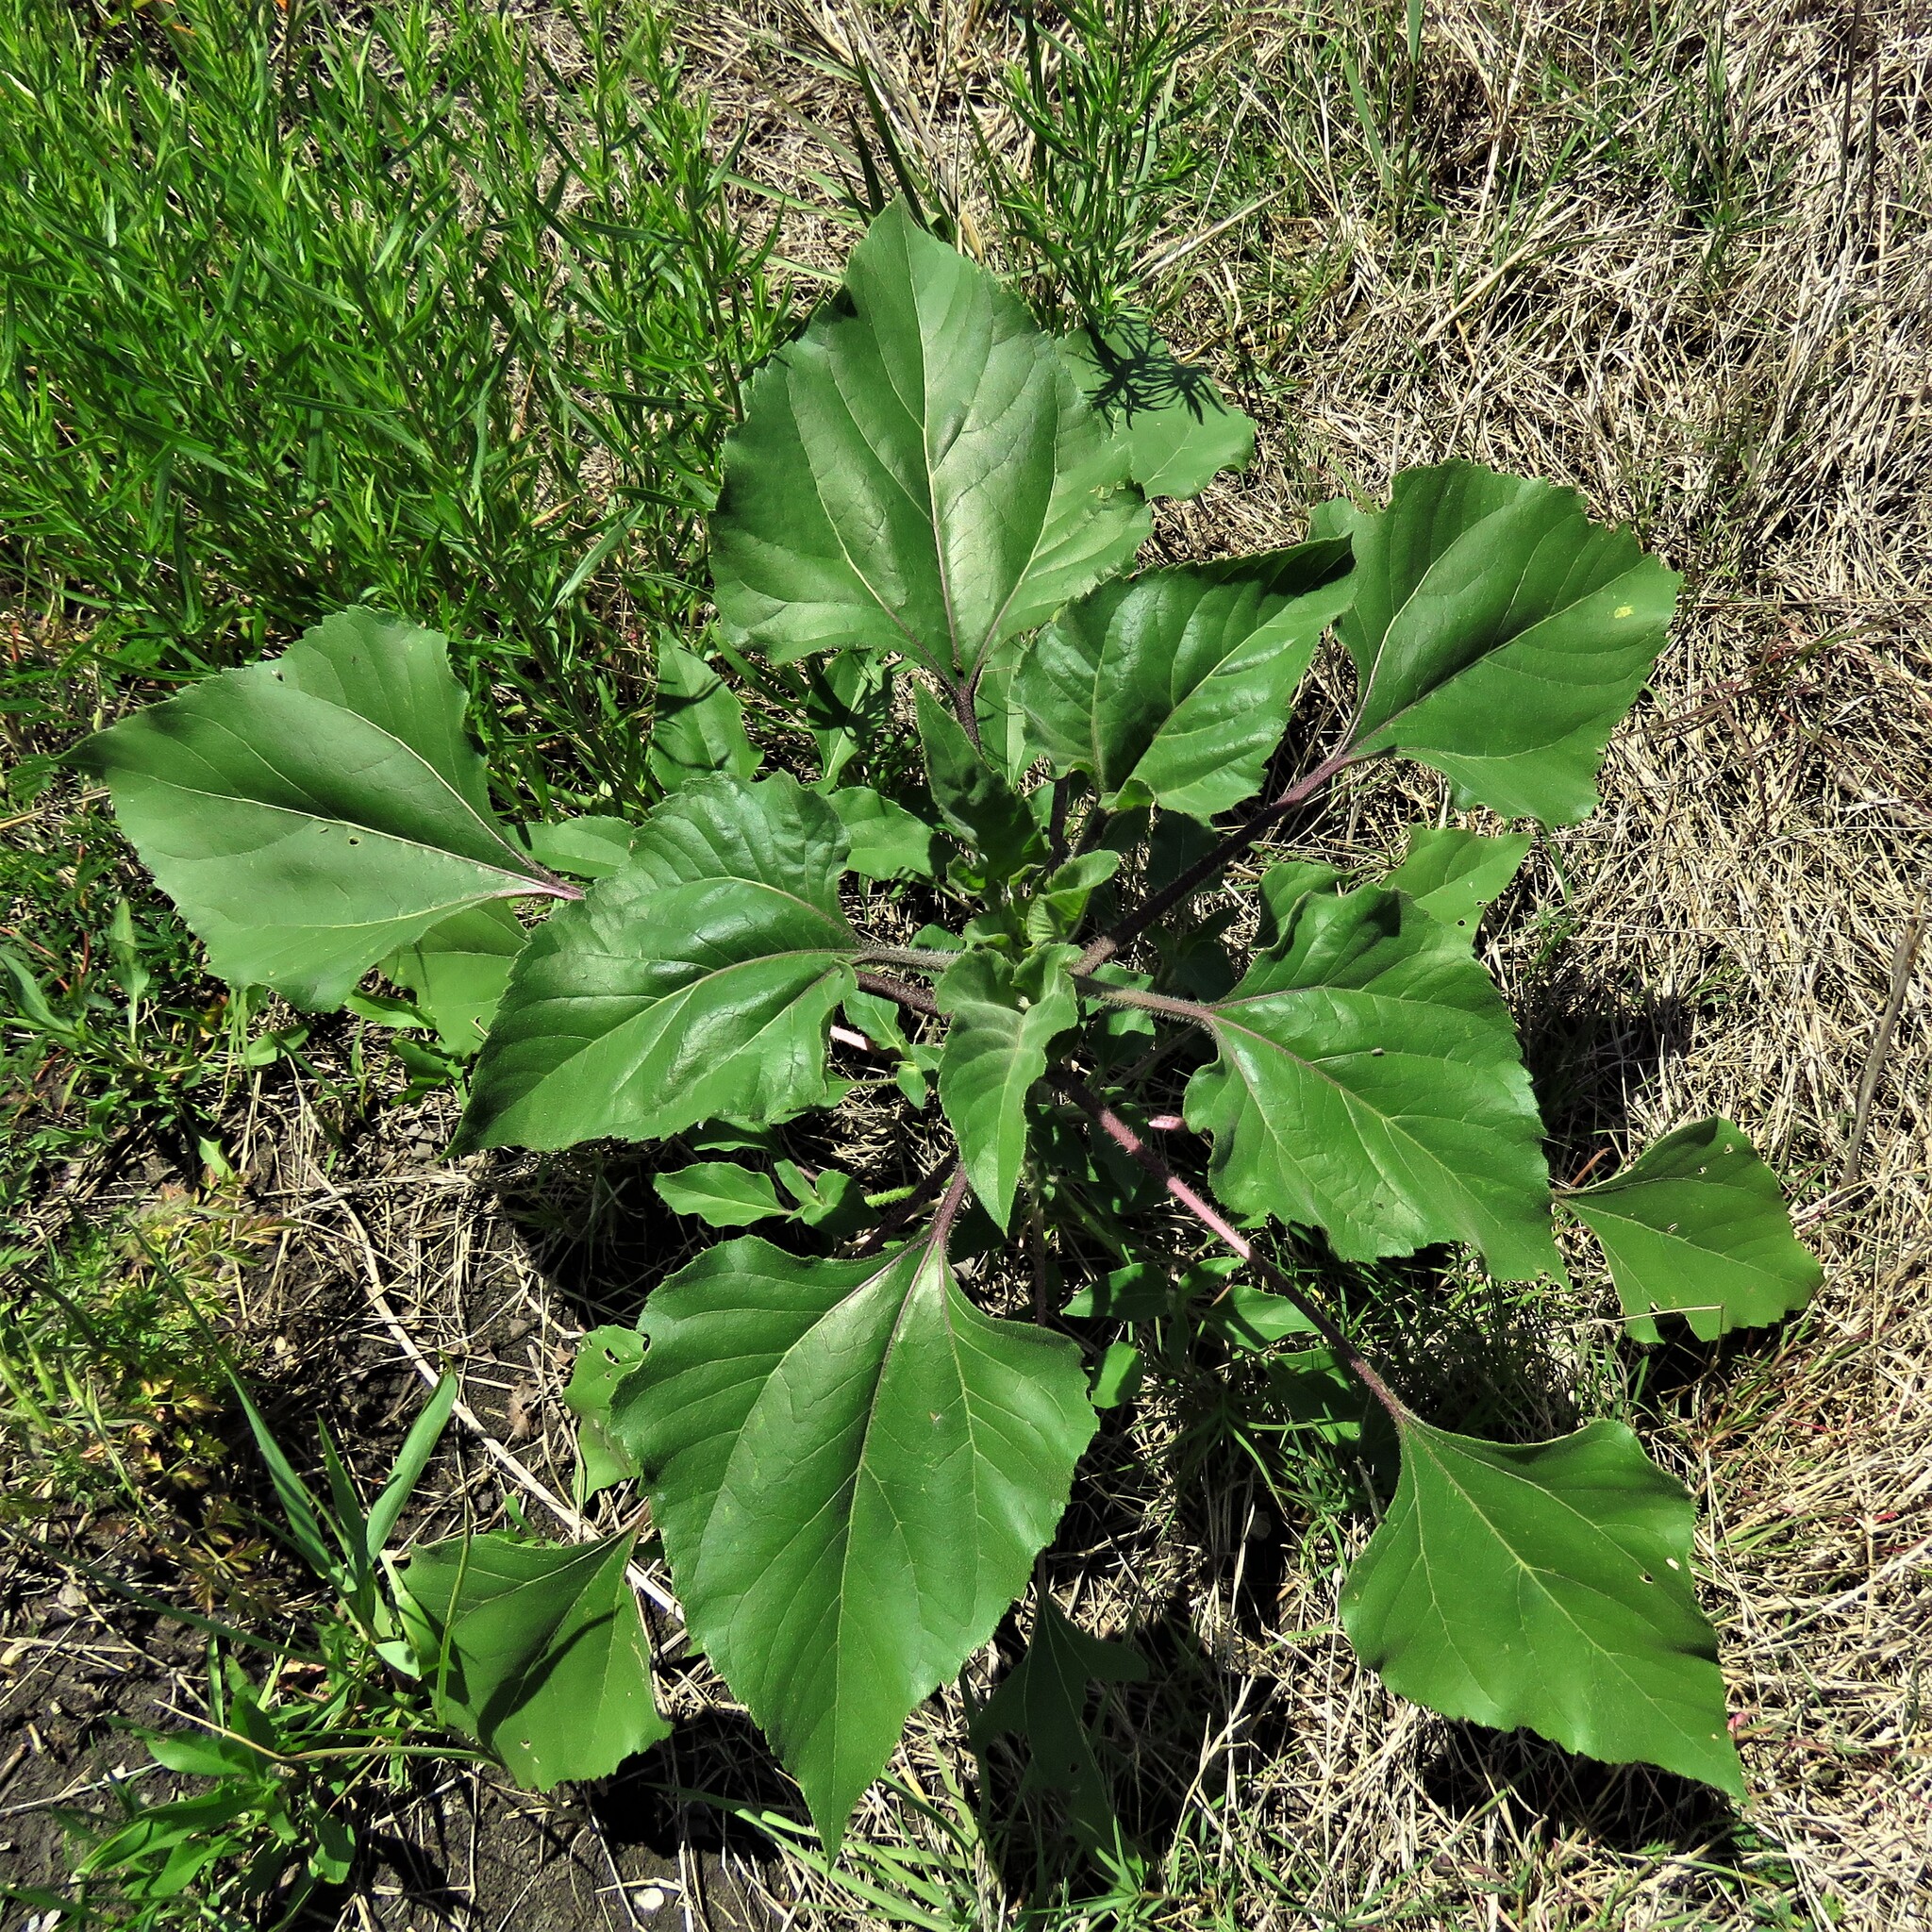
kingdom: Plantae
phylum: Tracheophyta
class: Magnoliopsida
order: Asterales
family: Asteraceae
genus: Helianthus
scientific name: Helianthus annuus
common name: Sunflower
